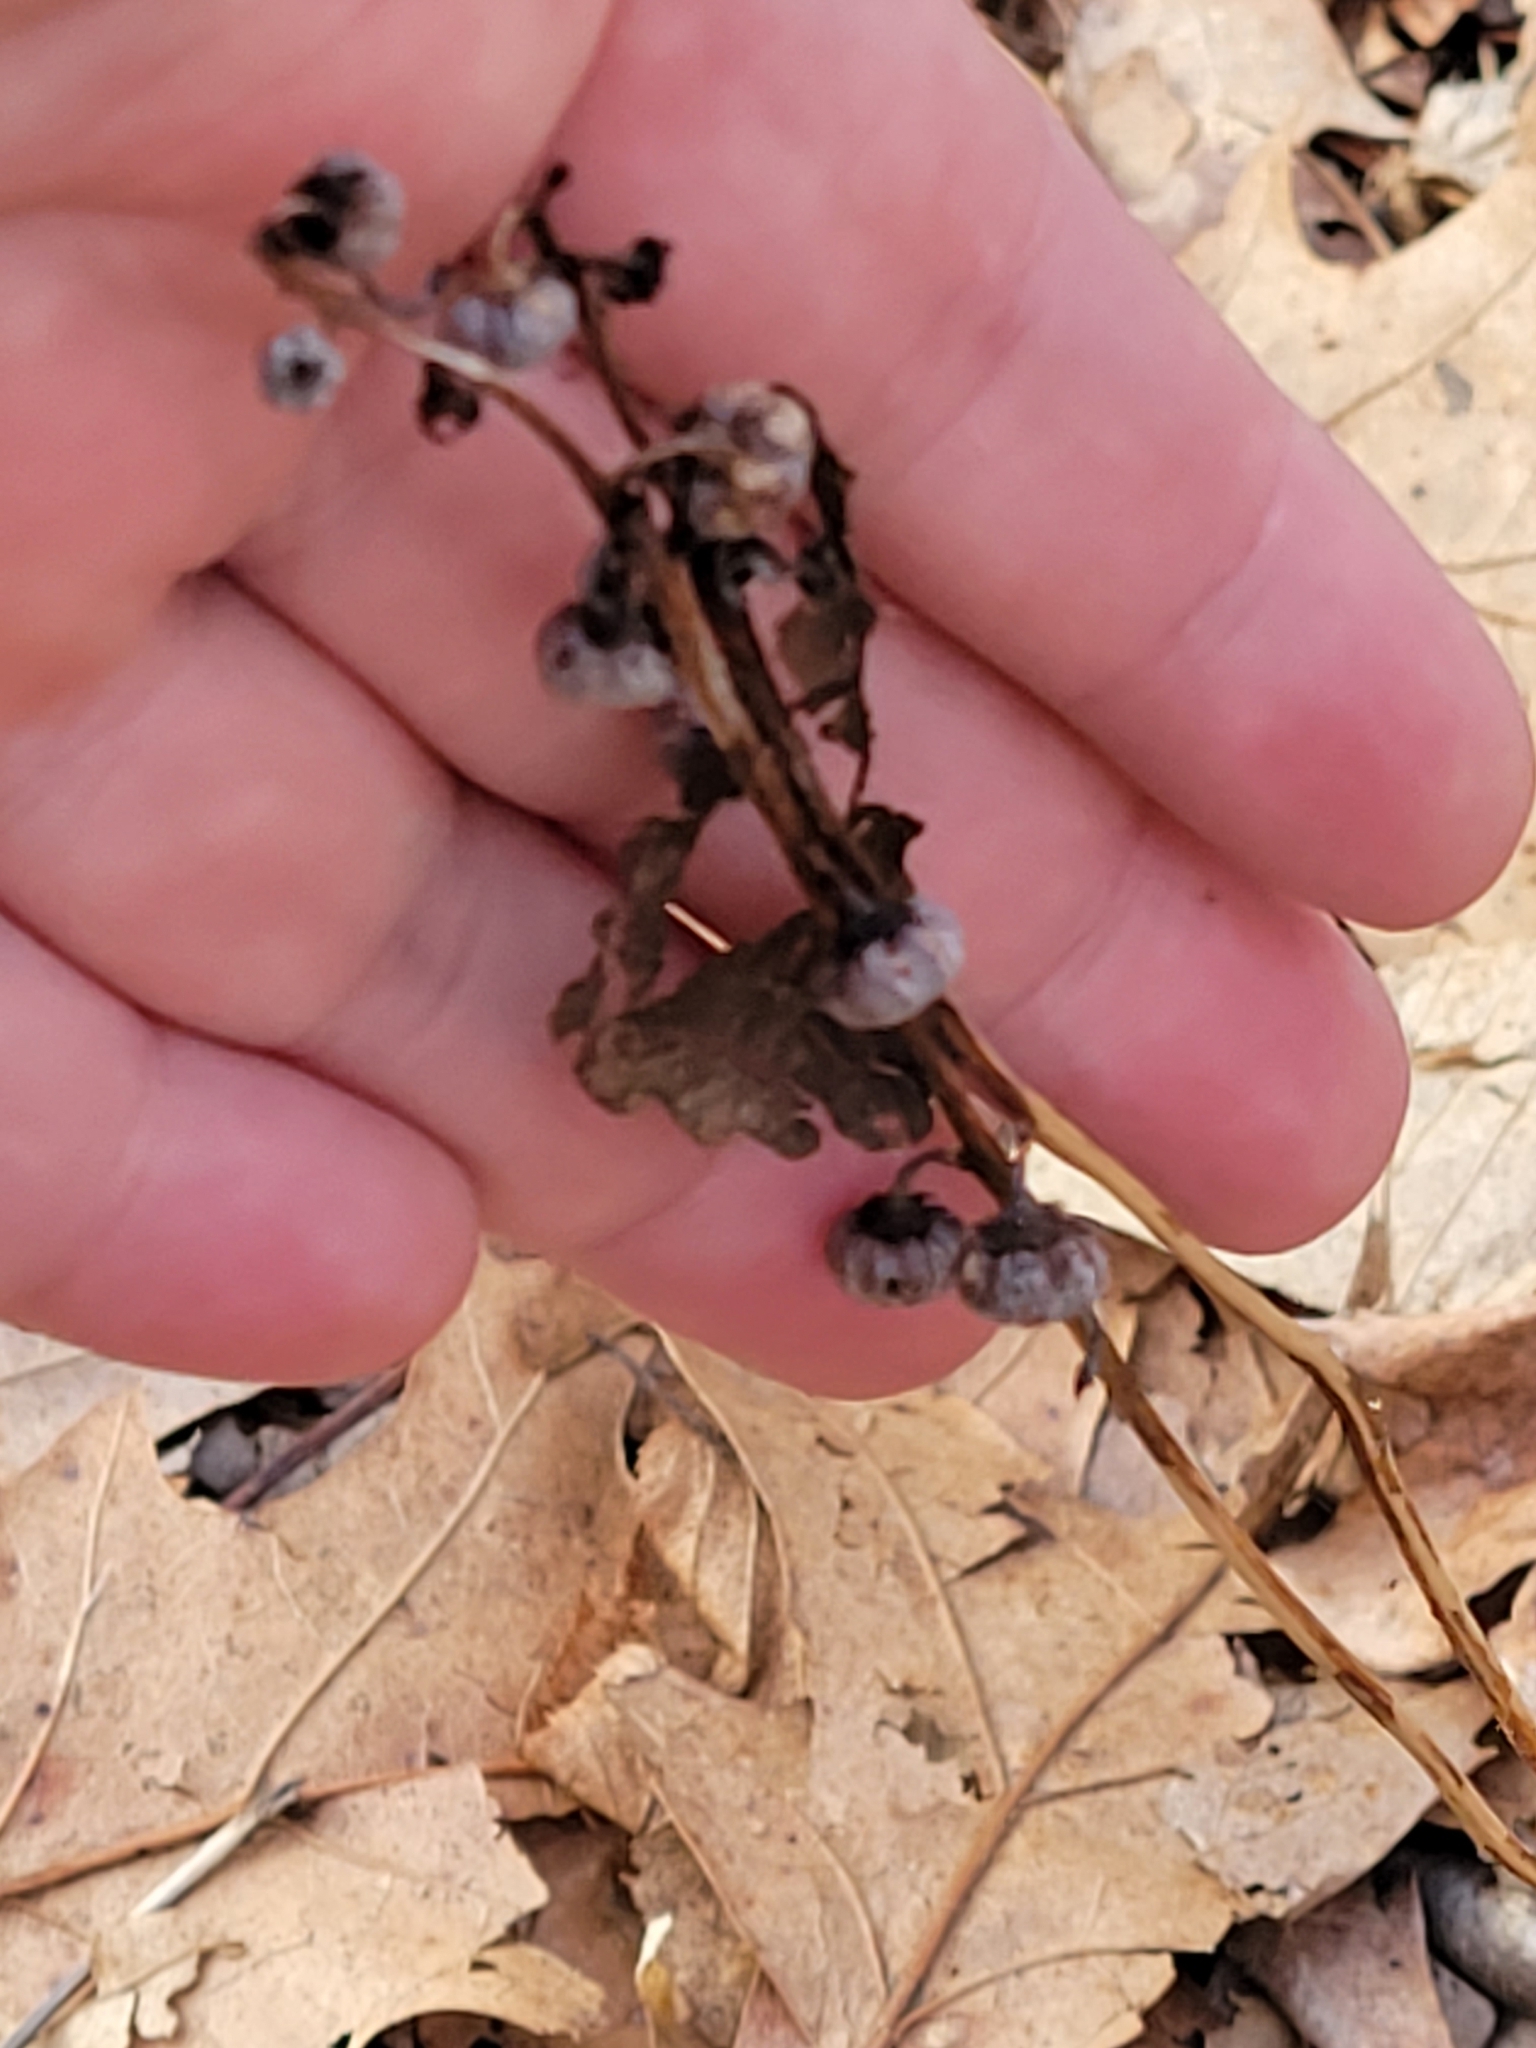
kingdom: Plantae
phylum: Tracheophyta
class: Magnoliopsida
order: Ericales
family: Ericaceae
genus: Pyrola
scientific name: Pyrola americana
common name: American wintergreen
